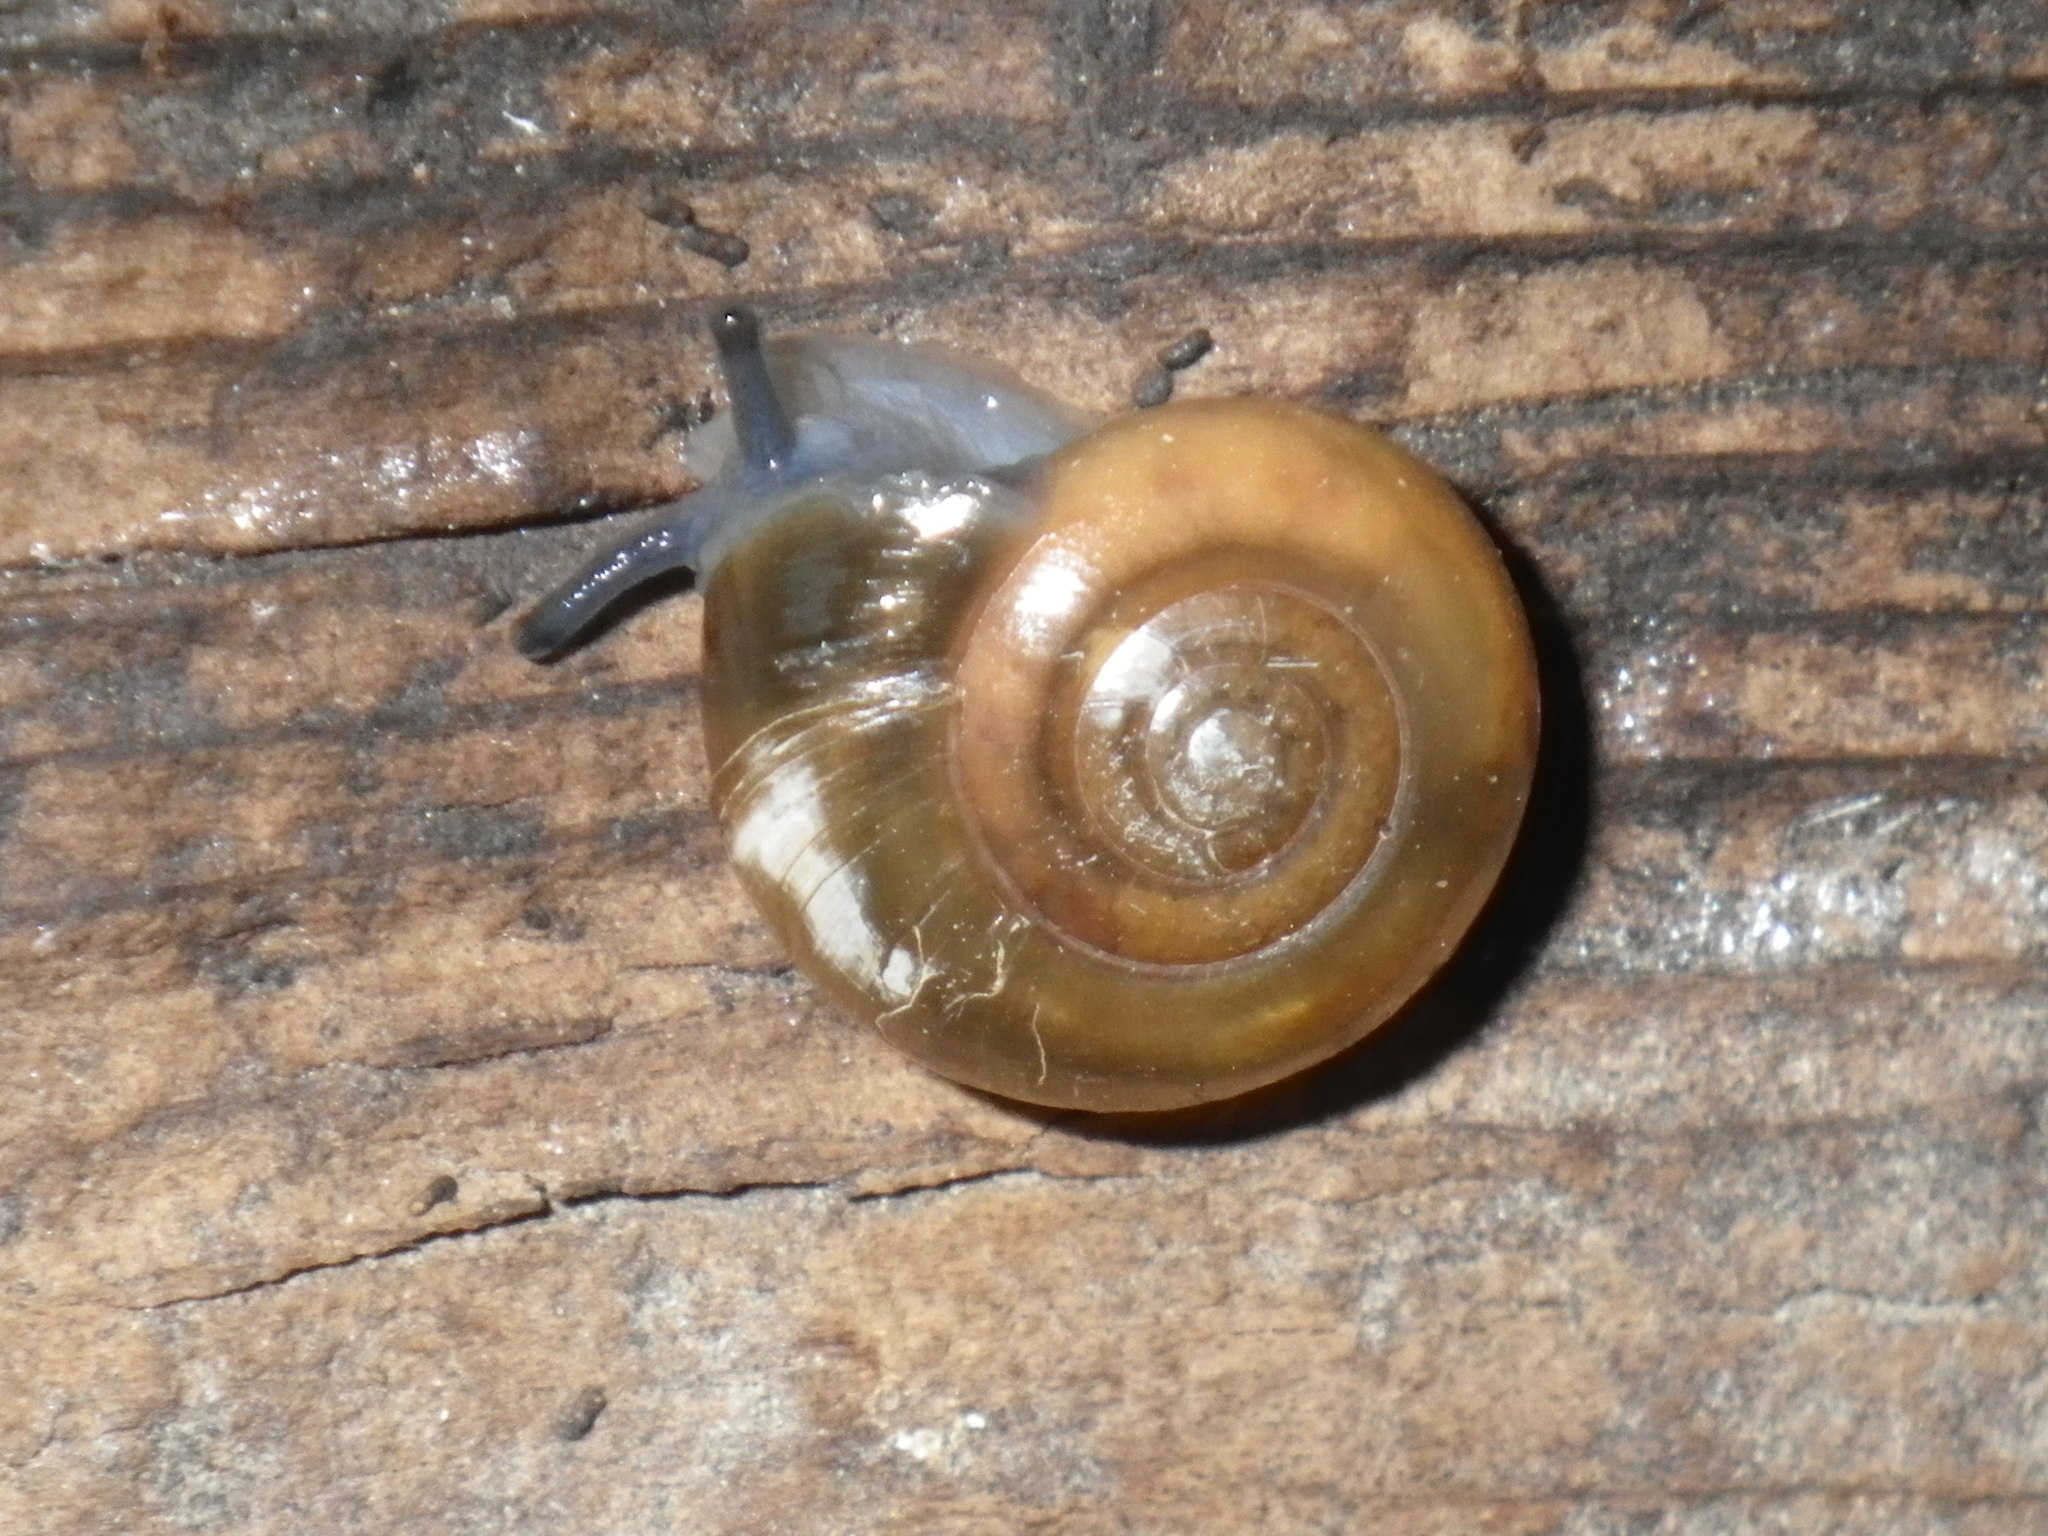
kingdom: Animalia
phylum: Mollusca
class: Gastropoda
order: Stylommatophora
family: Oxychilidae
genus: Oxychilus
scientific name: Oxychilus draparnaudi
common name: Draparnaud's glass snail
